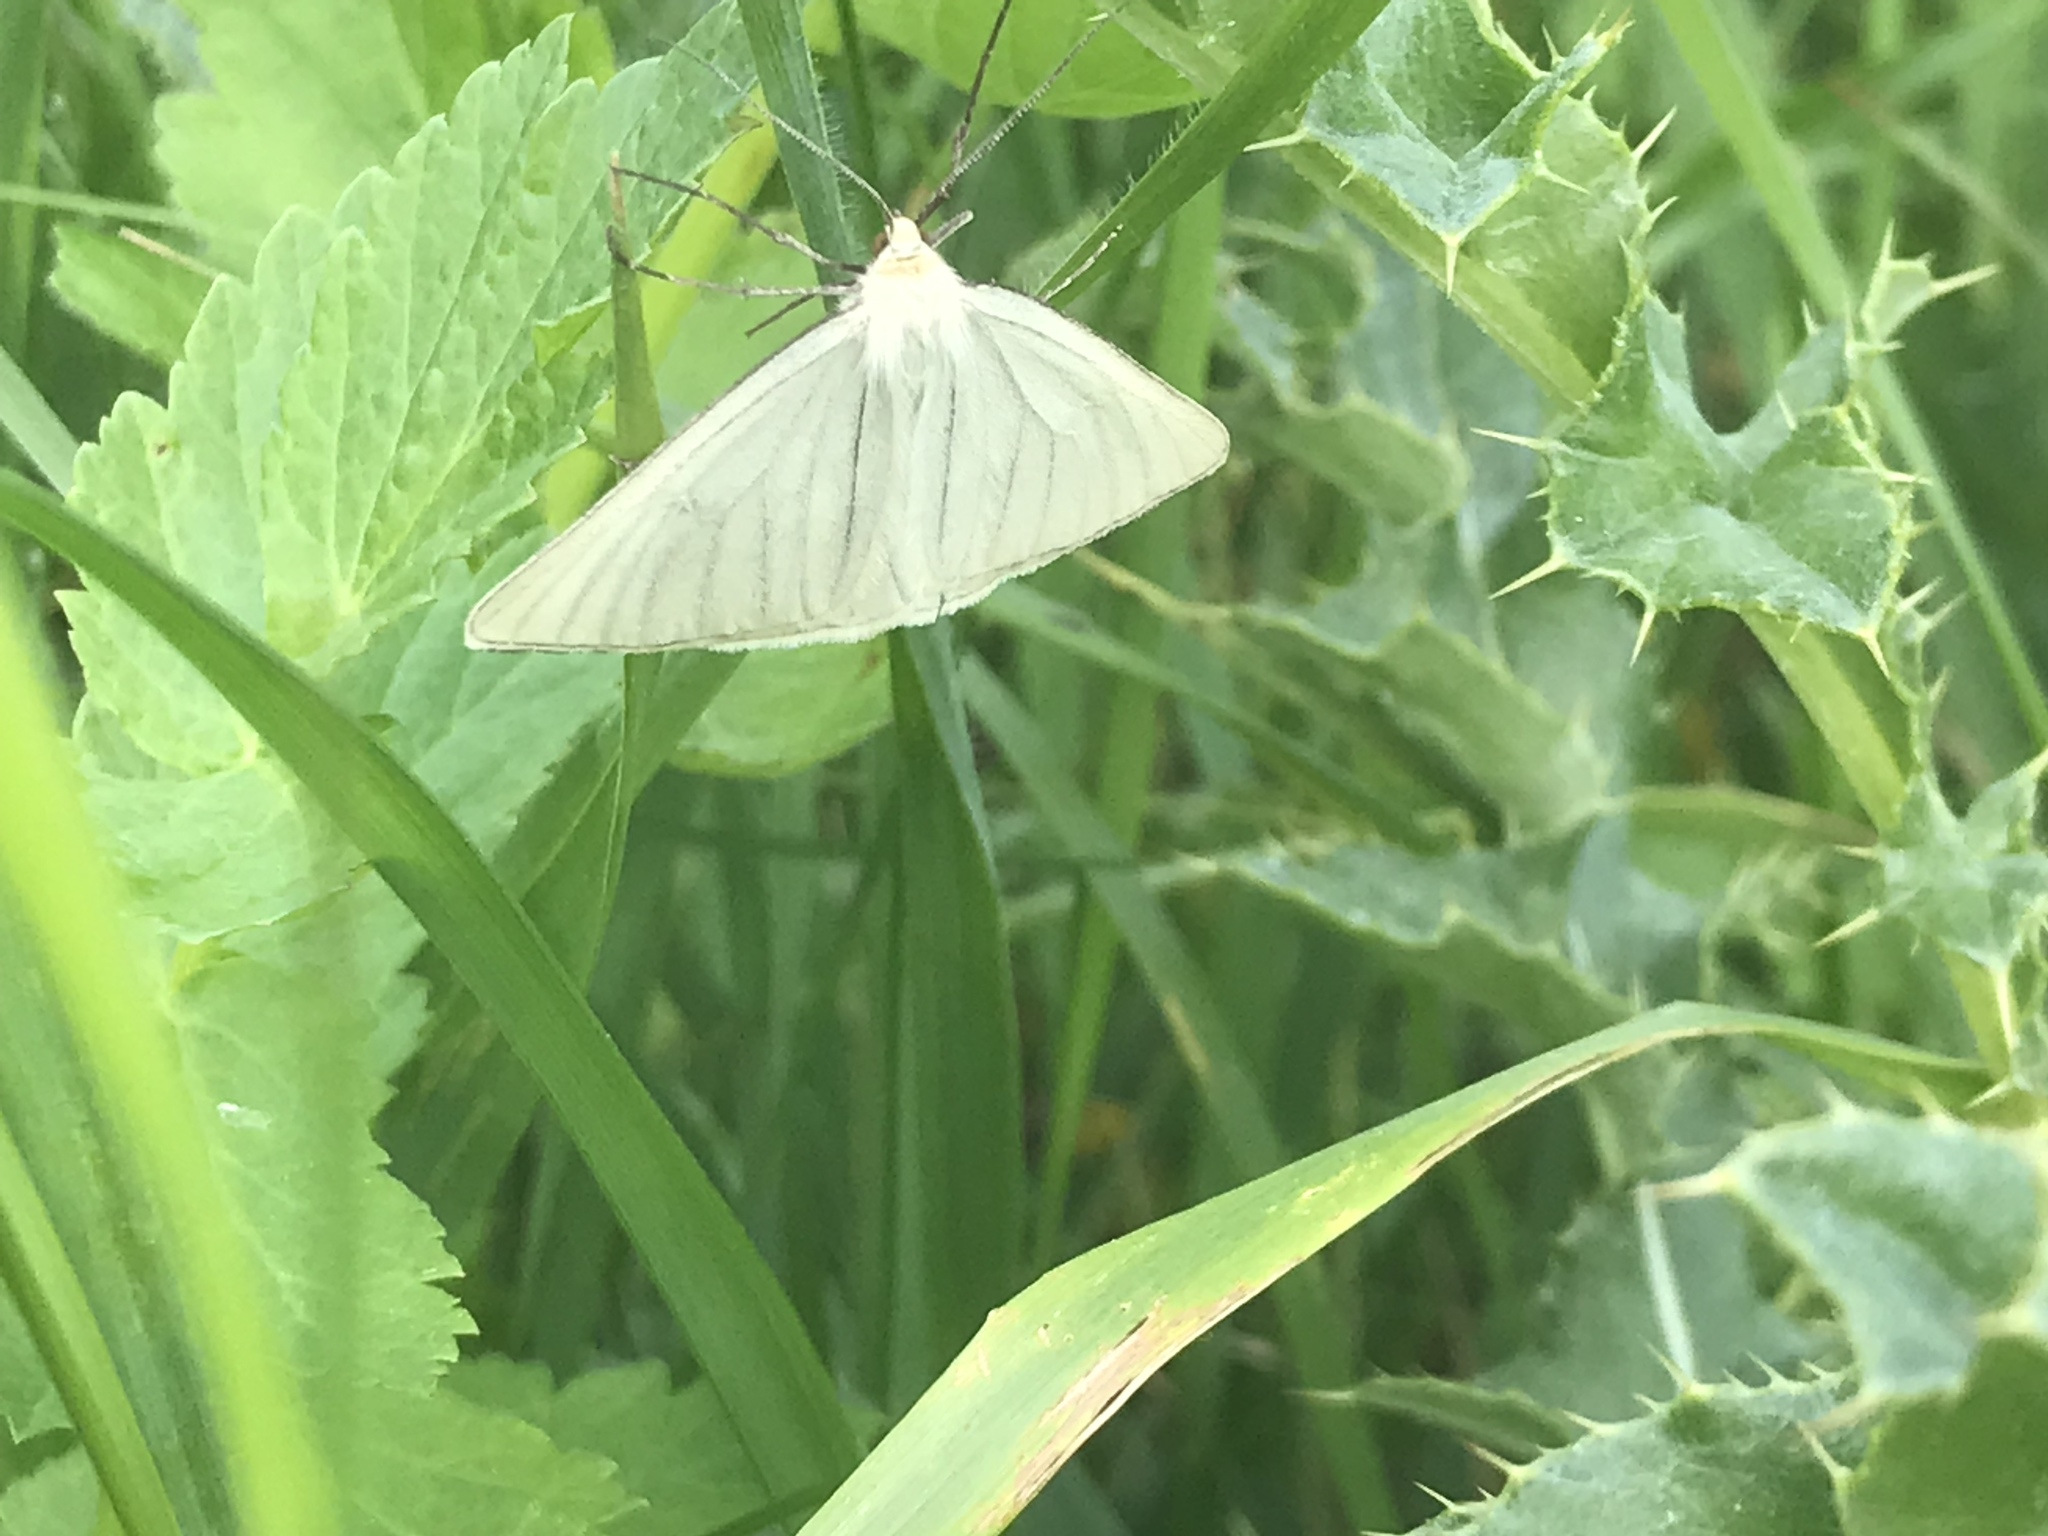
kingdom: Animalia
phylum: Arthropoda
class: Insecta
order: Lepidoptera
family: Geometridae
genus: Siona
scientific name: Siona lineata
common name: Black-veined moth
